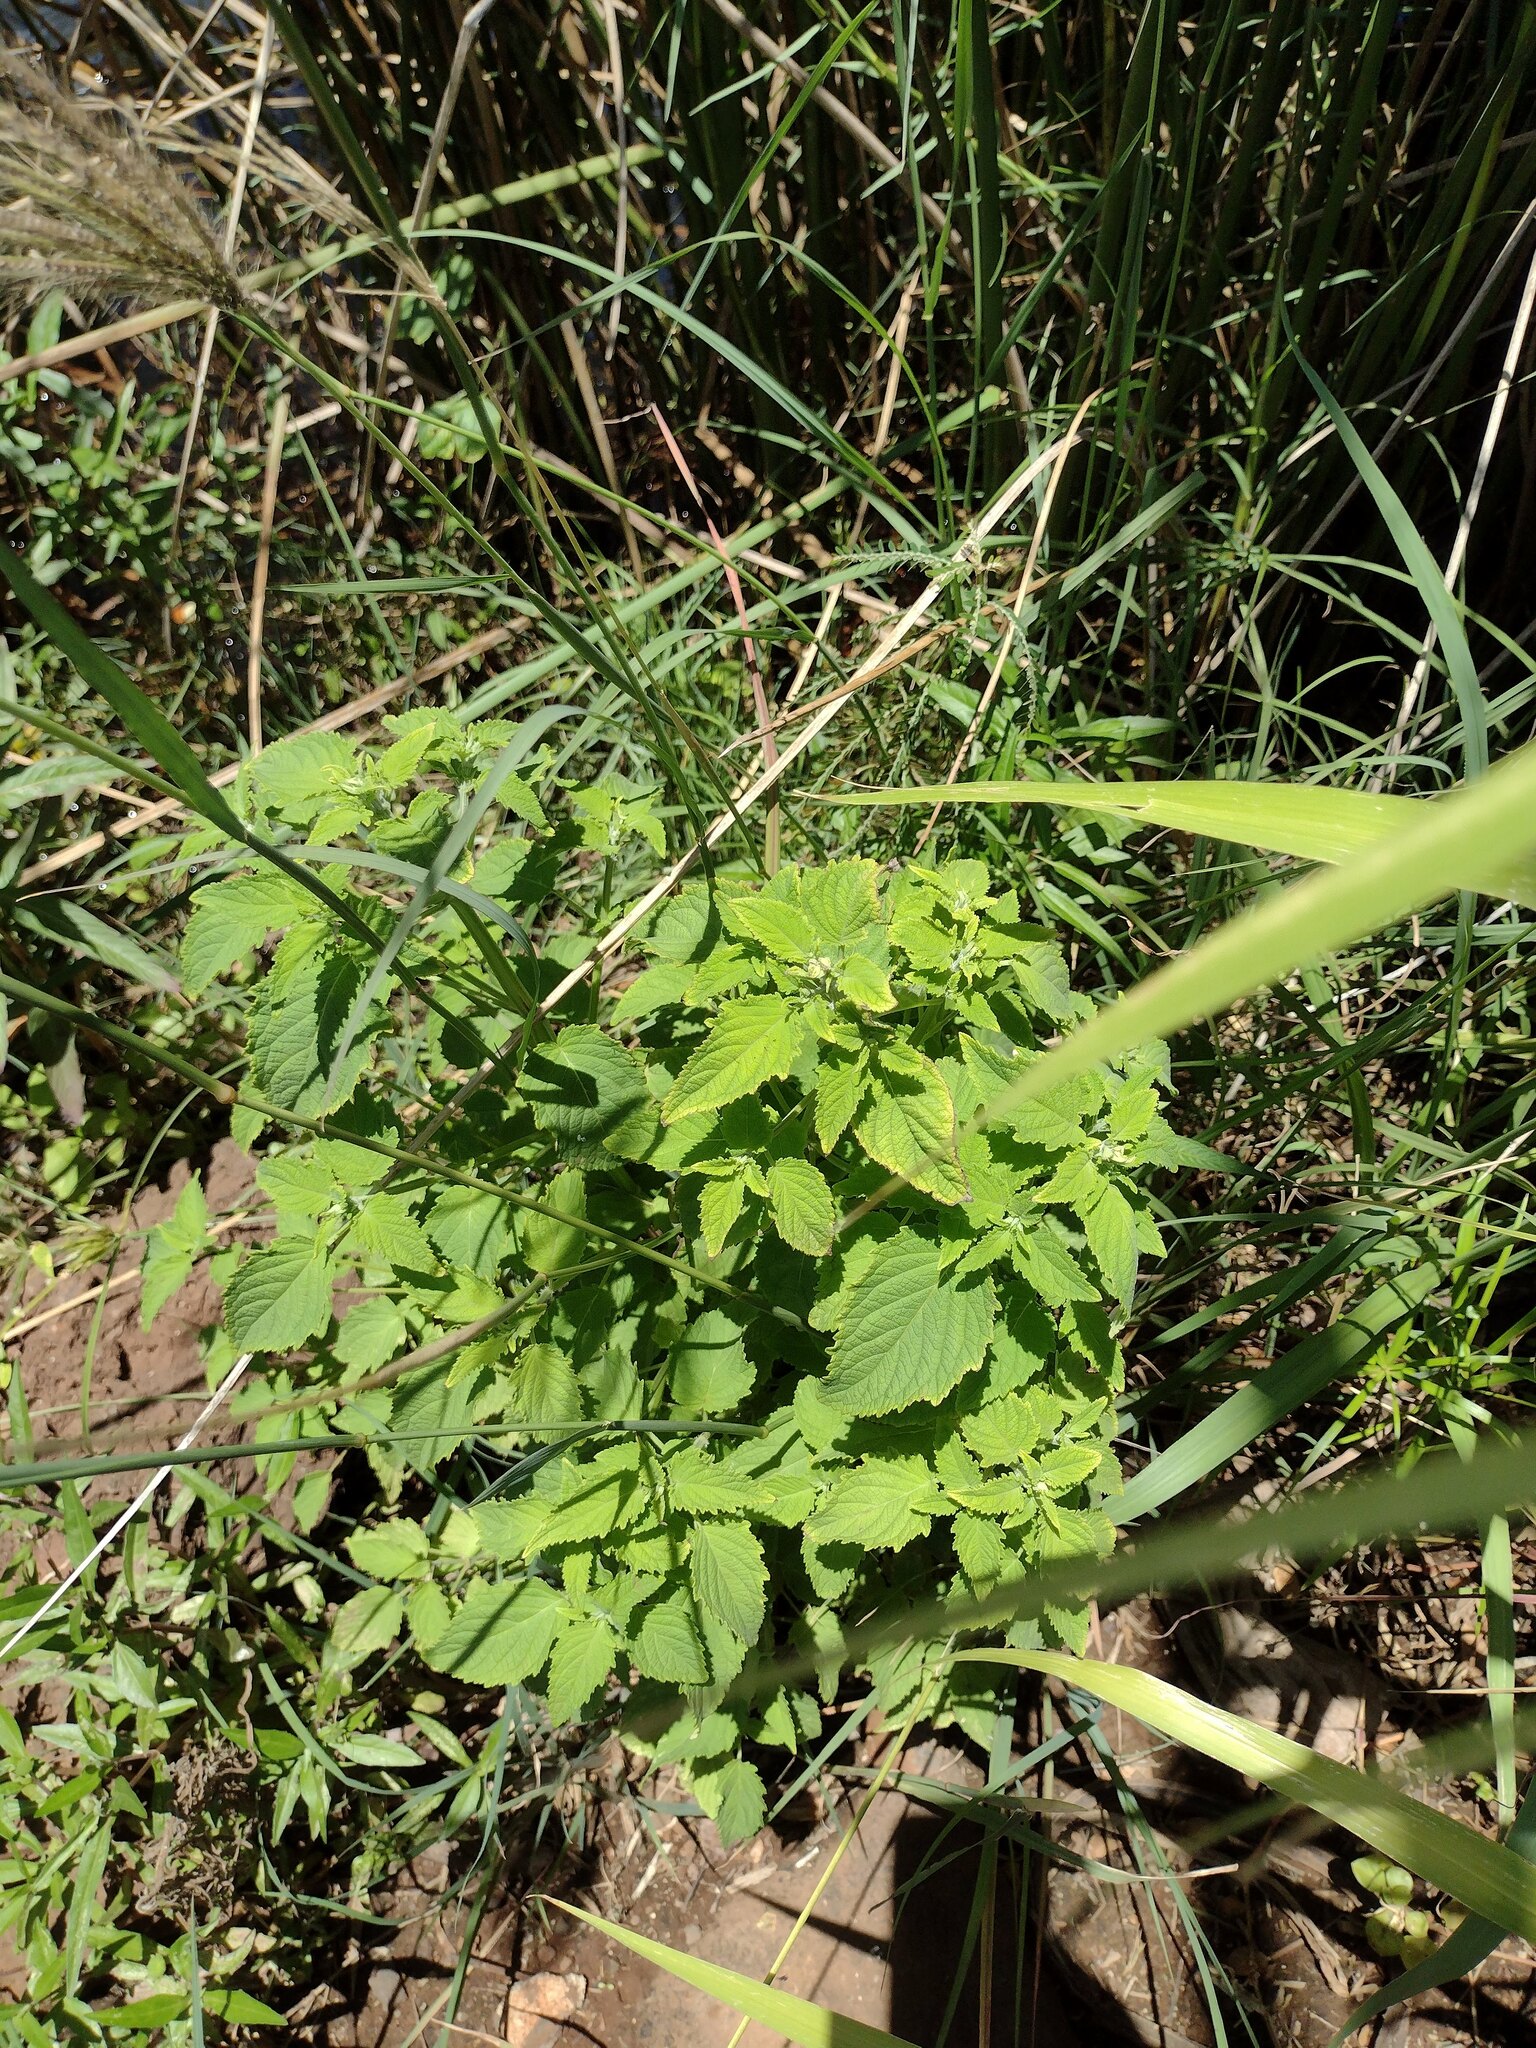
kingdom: Plantae
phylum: Tracheophyta
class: Magnoliopsida
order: Lamiales
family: Lamiaceae
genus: Mesosphaerum
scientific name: Mesosphaerum pectinatum
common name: Comb hyptis
